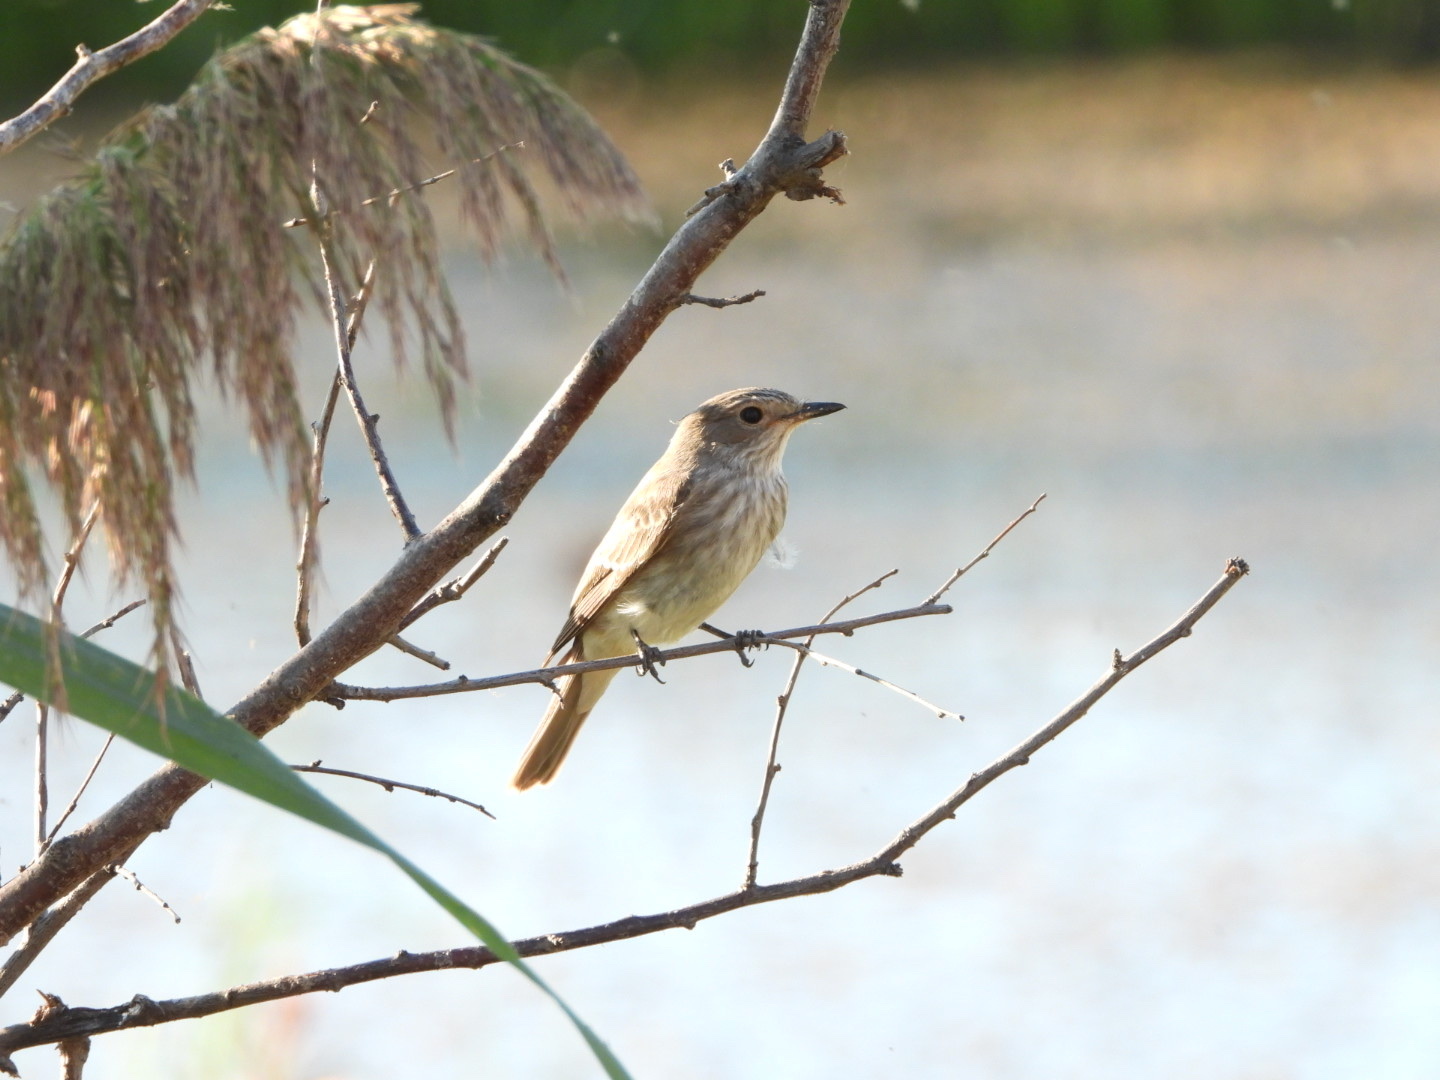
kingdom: Animalia
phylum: Chordata
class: Aves
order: Passeriformes
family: Muscicapidae
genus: Muscicapa
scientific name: Muscicapa striata
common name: Spotted flycatcher
